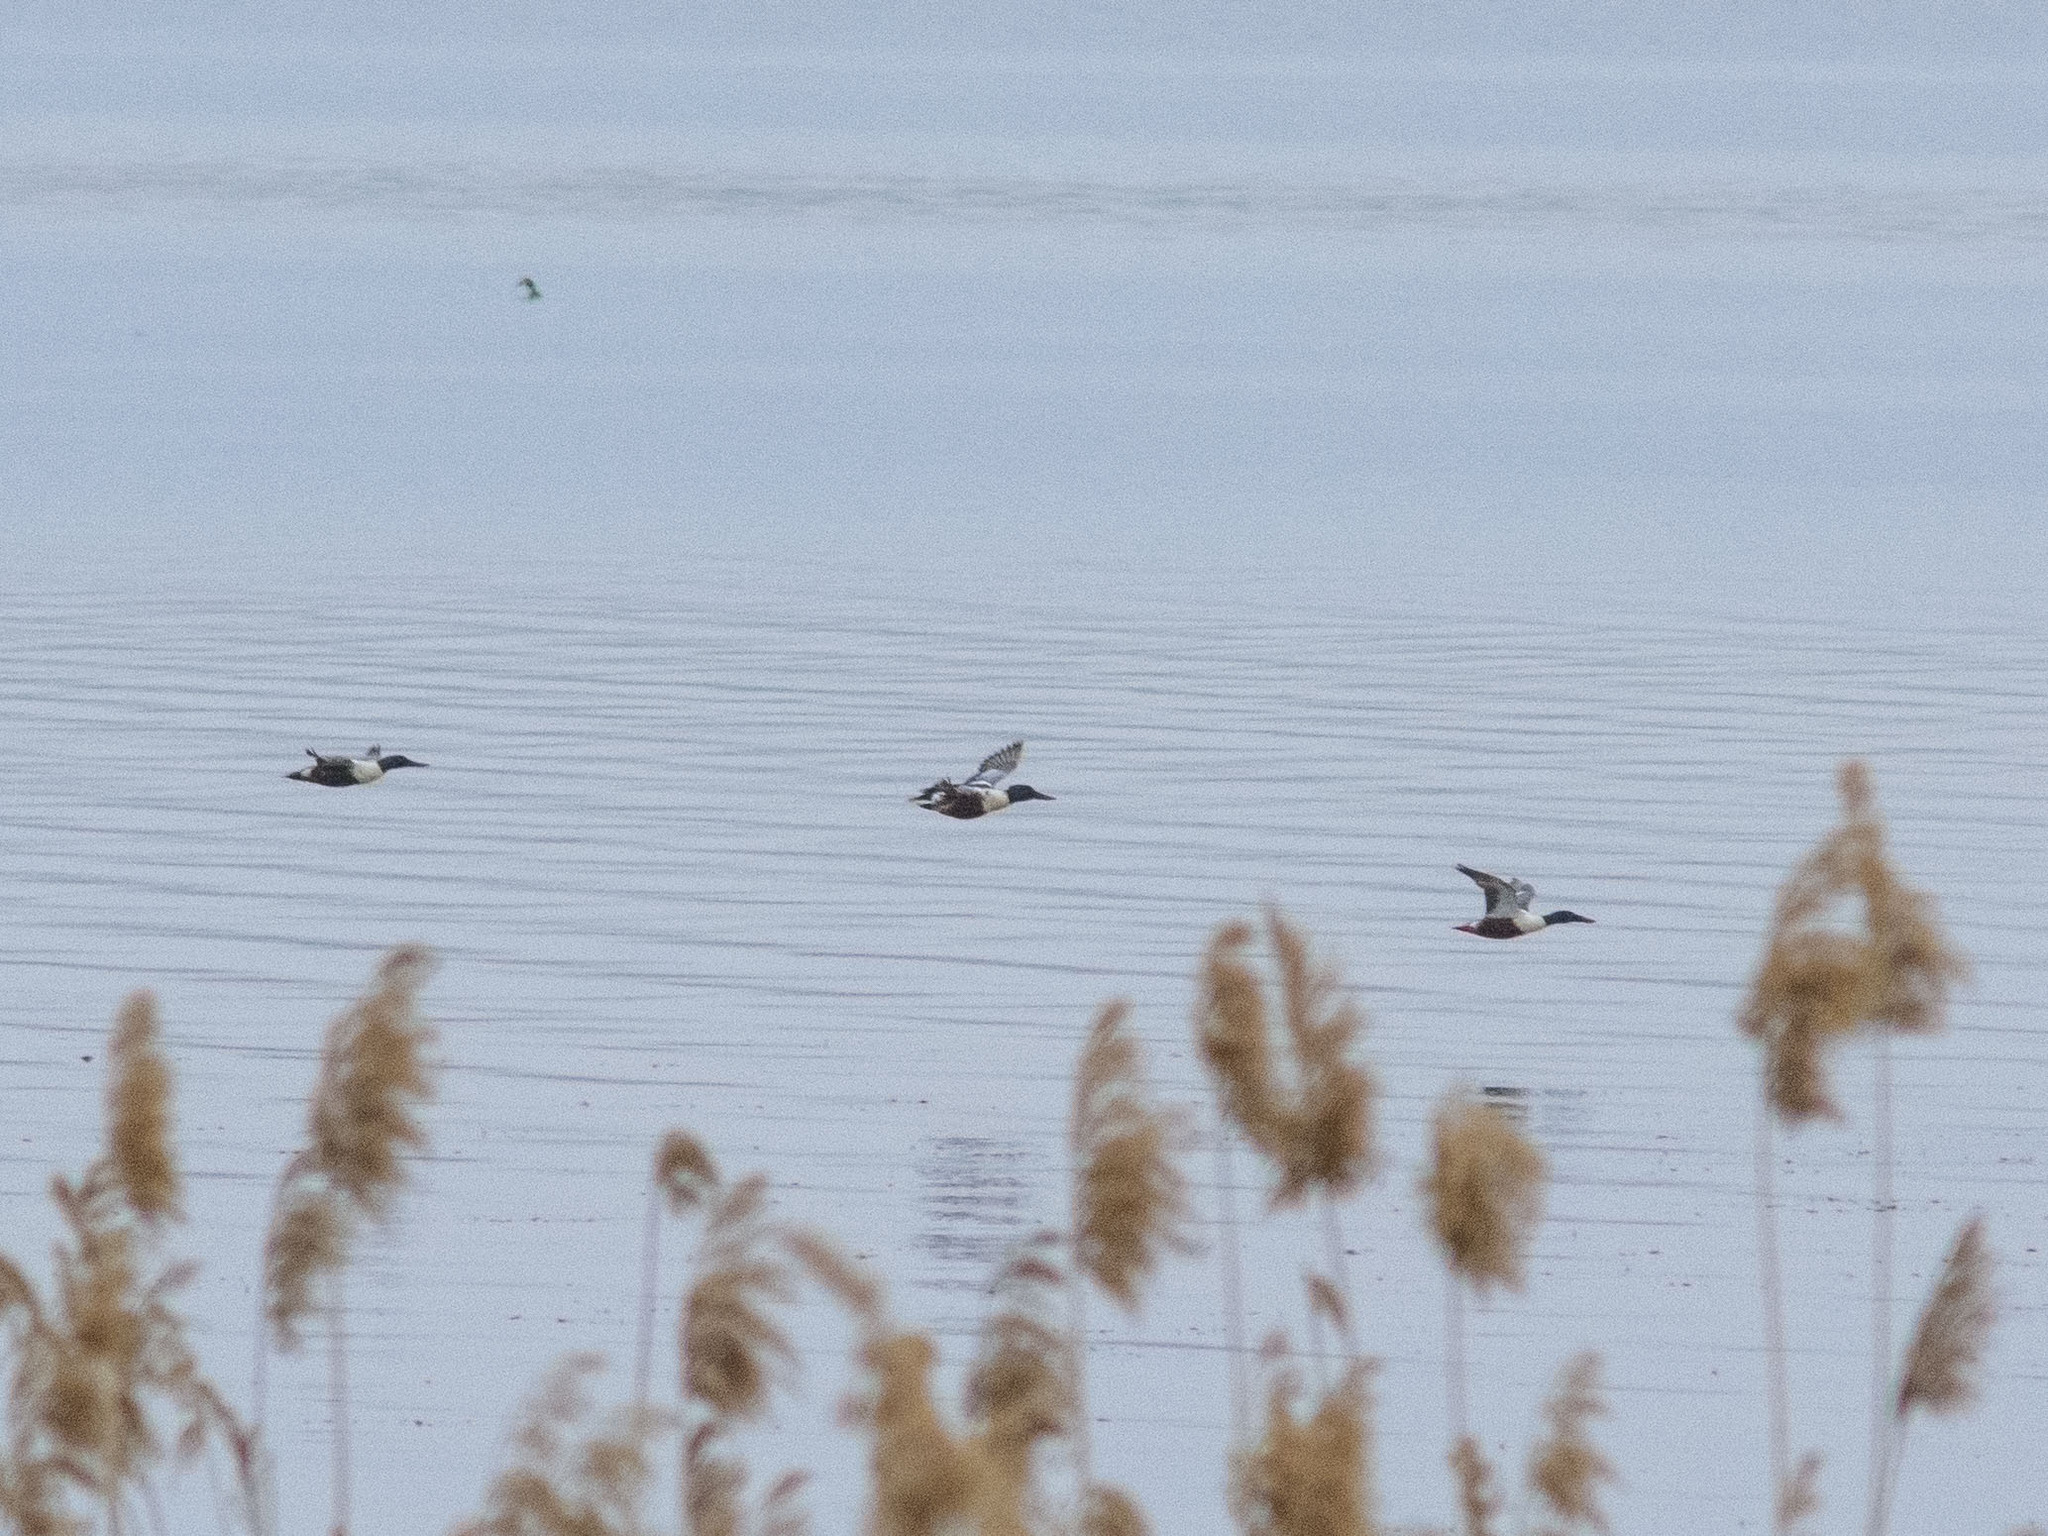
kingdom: Animalia
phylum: Chordata
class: Aves
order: Anseriformes
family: Anatidae
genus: Spatula
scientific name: Spatula clypeata
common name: Northern shoveler
